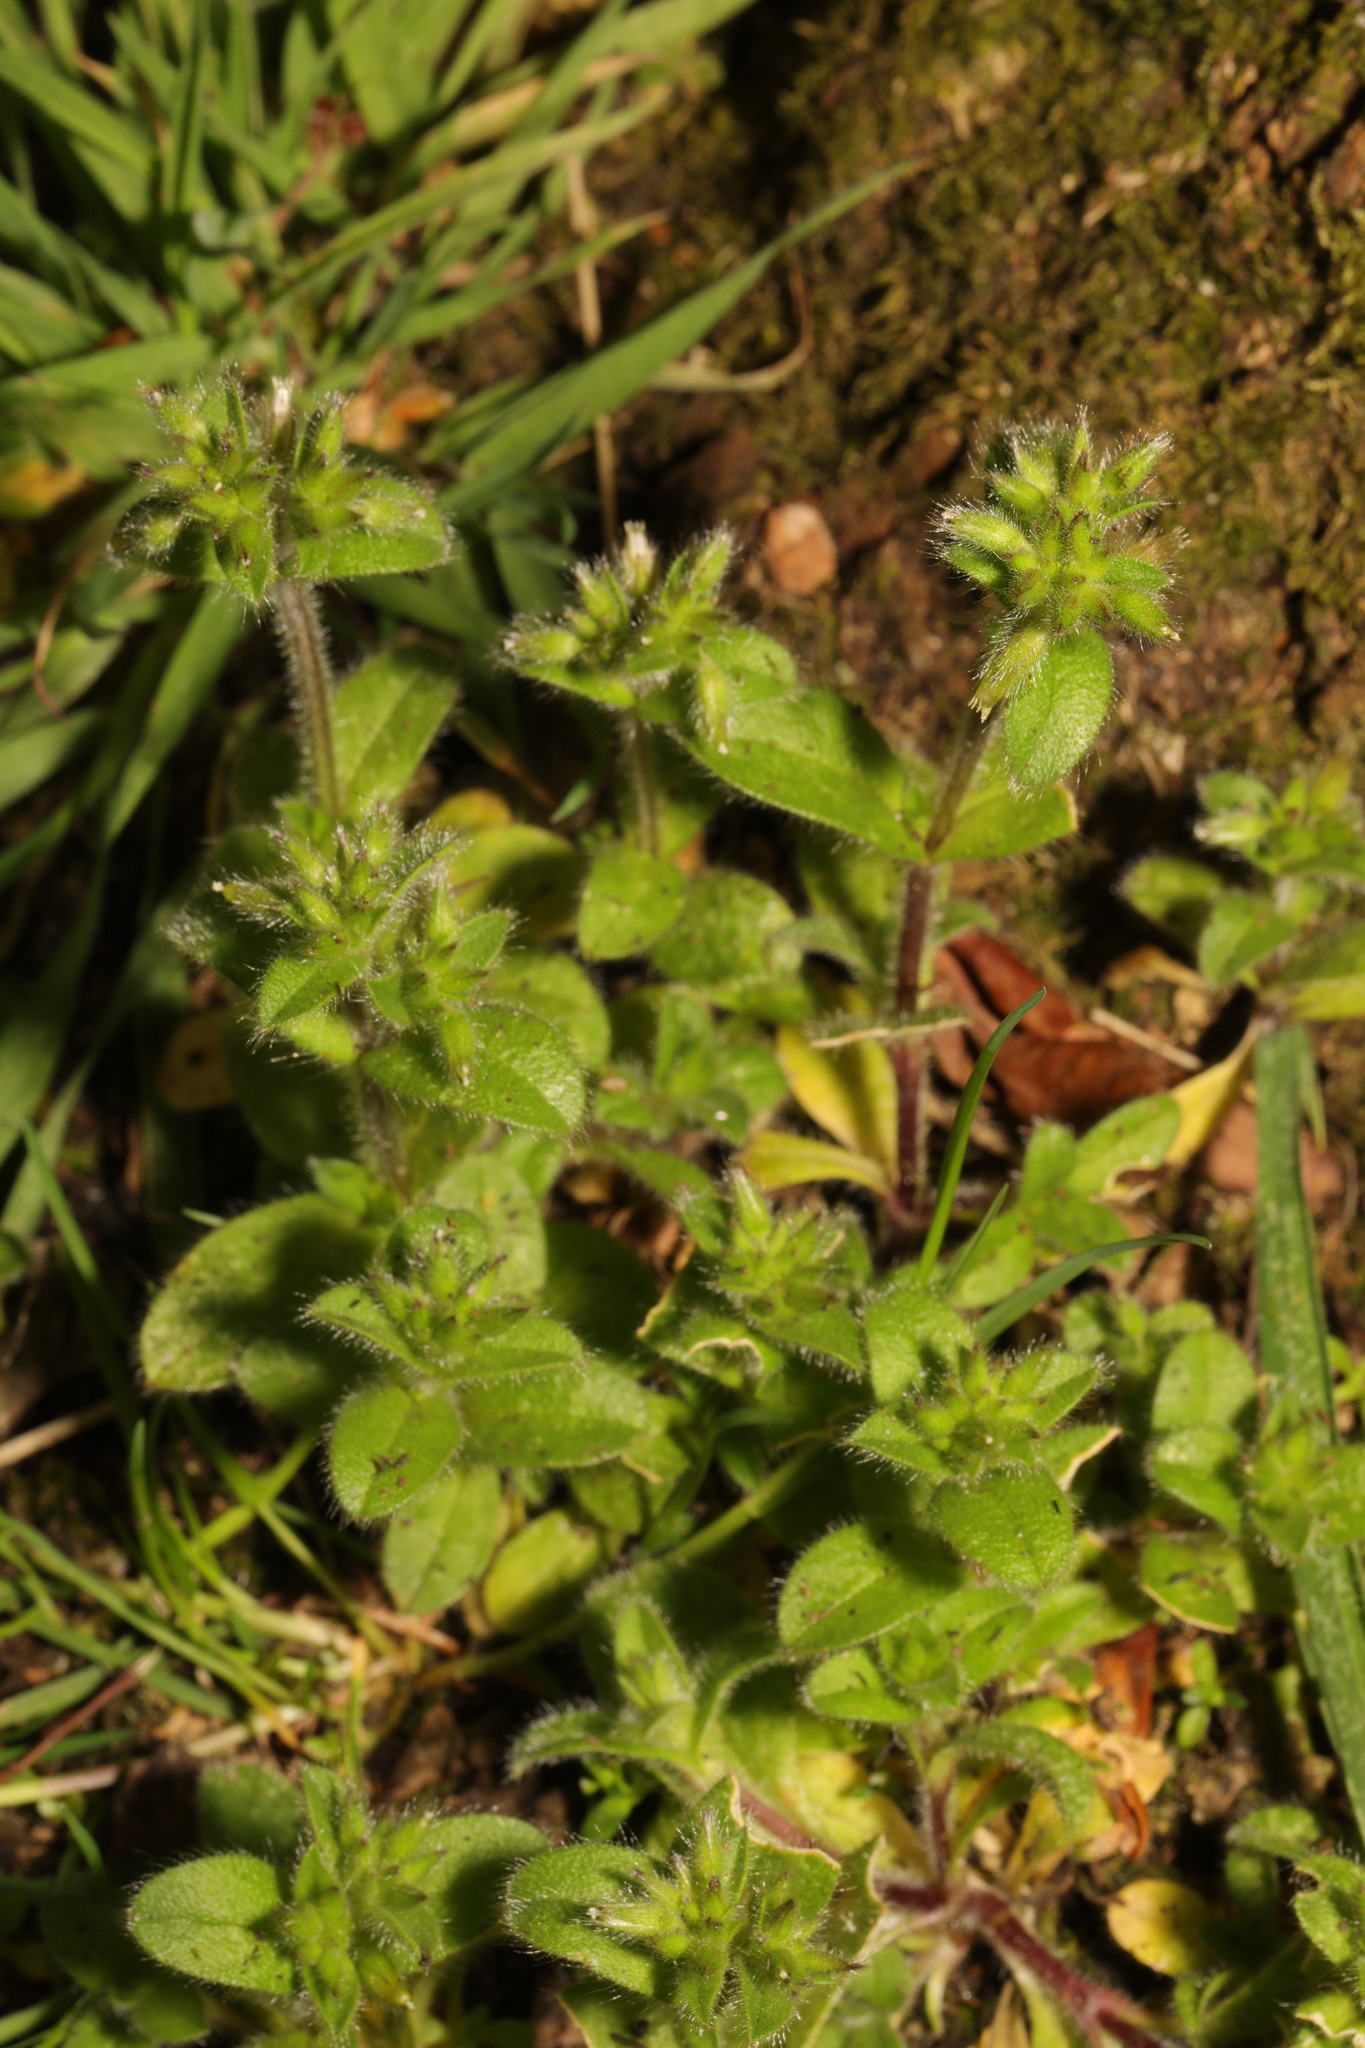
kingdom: Plantae
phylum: Tracheophyta
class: Magnoliopsida
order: Caryophyllales
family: Caryophyllaceae
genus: Cerastium
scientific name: Cerastium glomeratum
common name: Sticky chickweed
